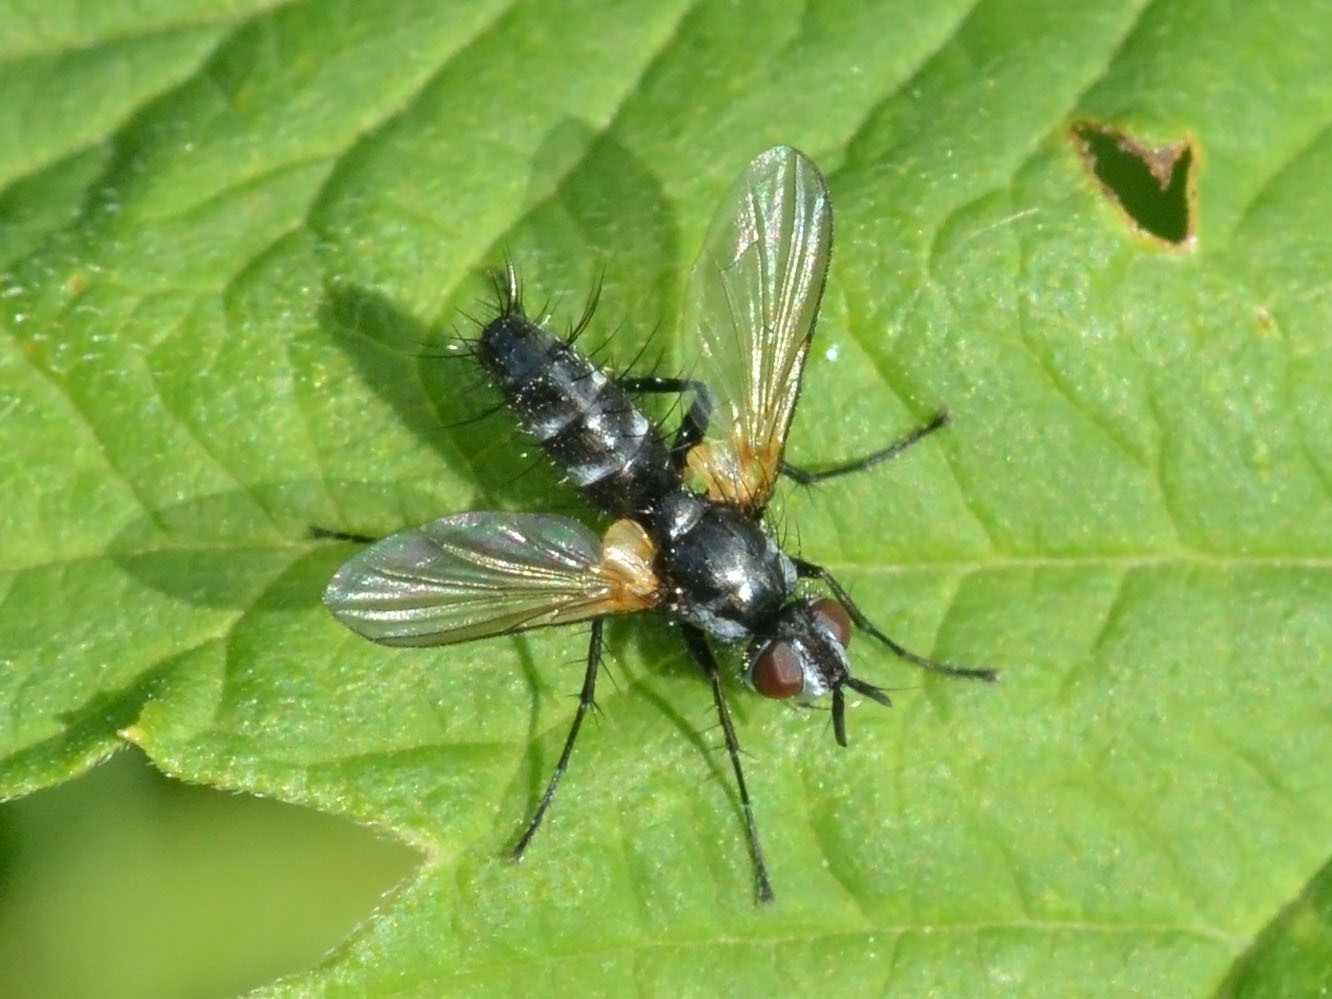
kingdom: Animalia
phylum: Arthropoda
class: Insecta
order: Diptera
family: Tachinidae
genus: Phyllomya
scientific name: Phyllomya volvulus
